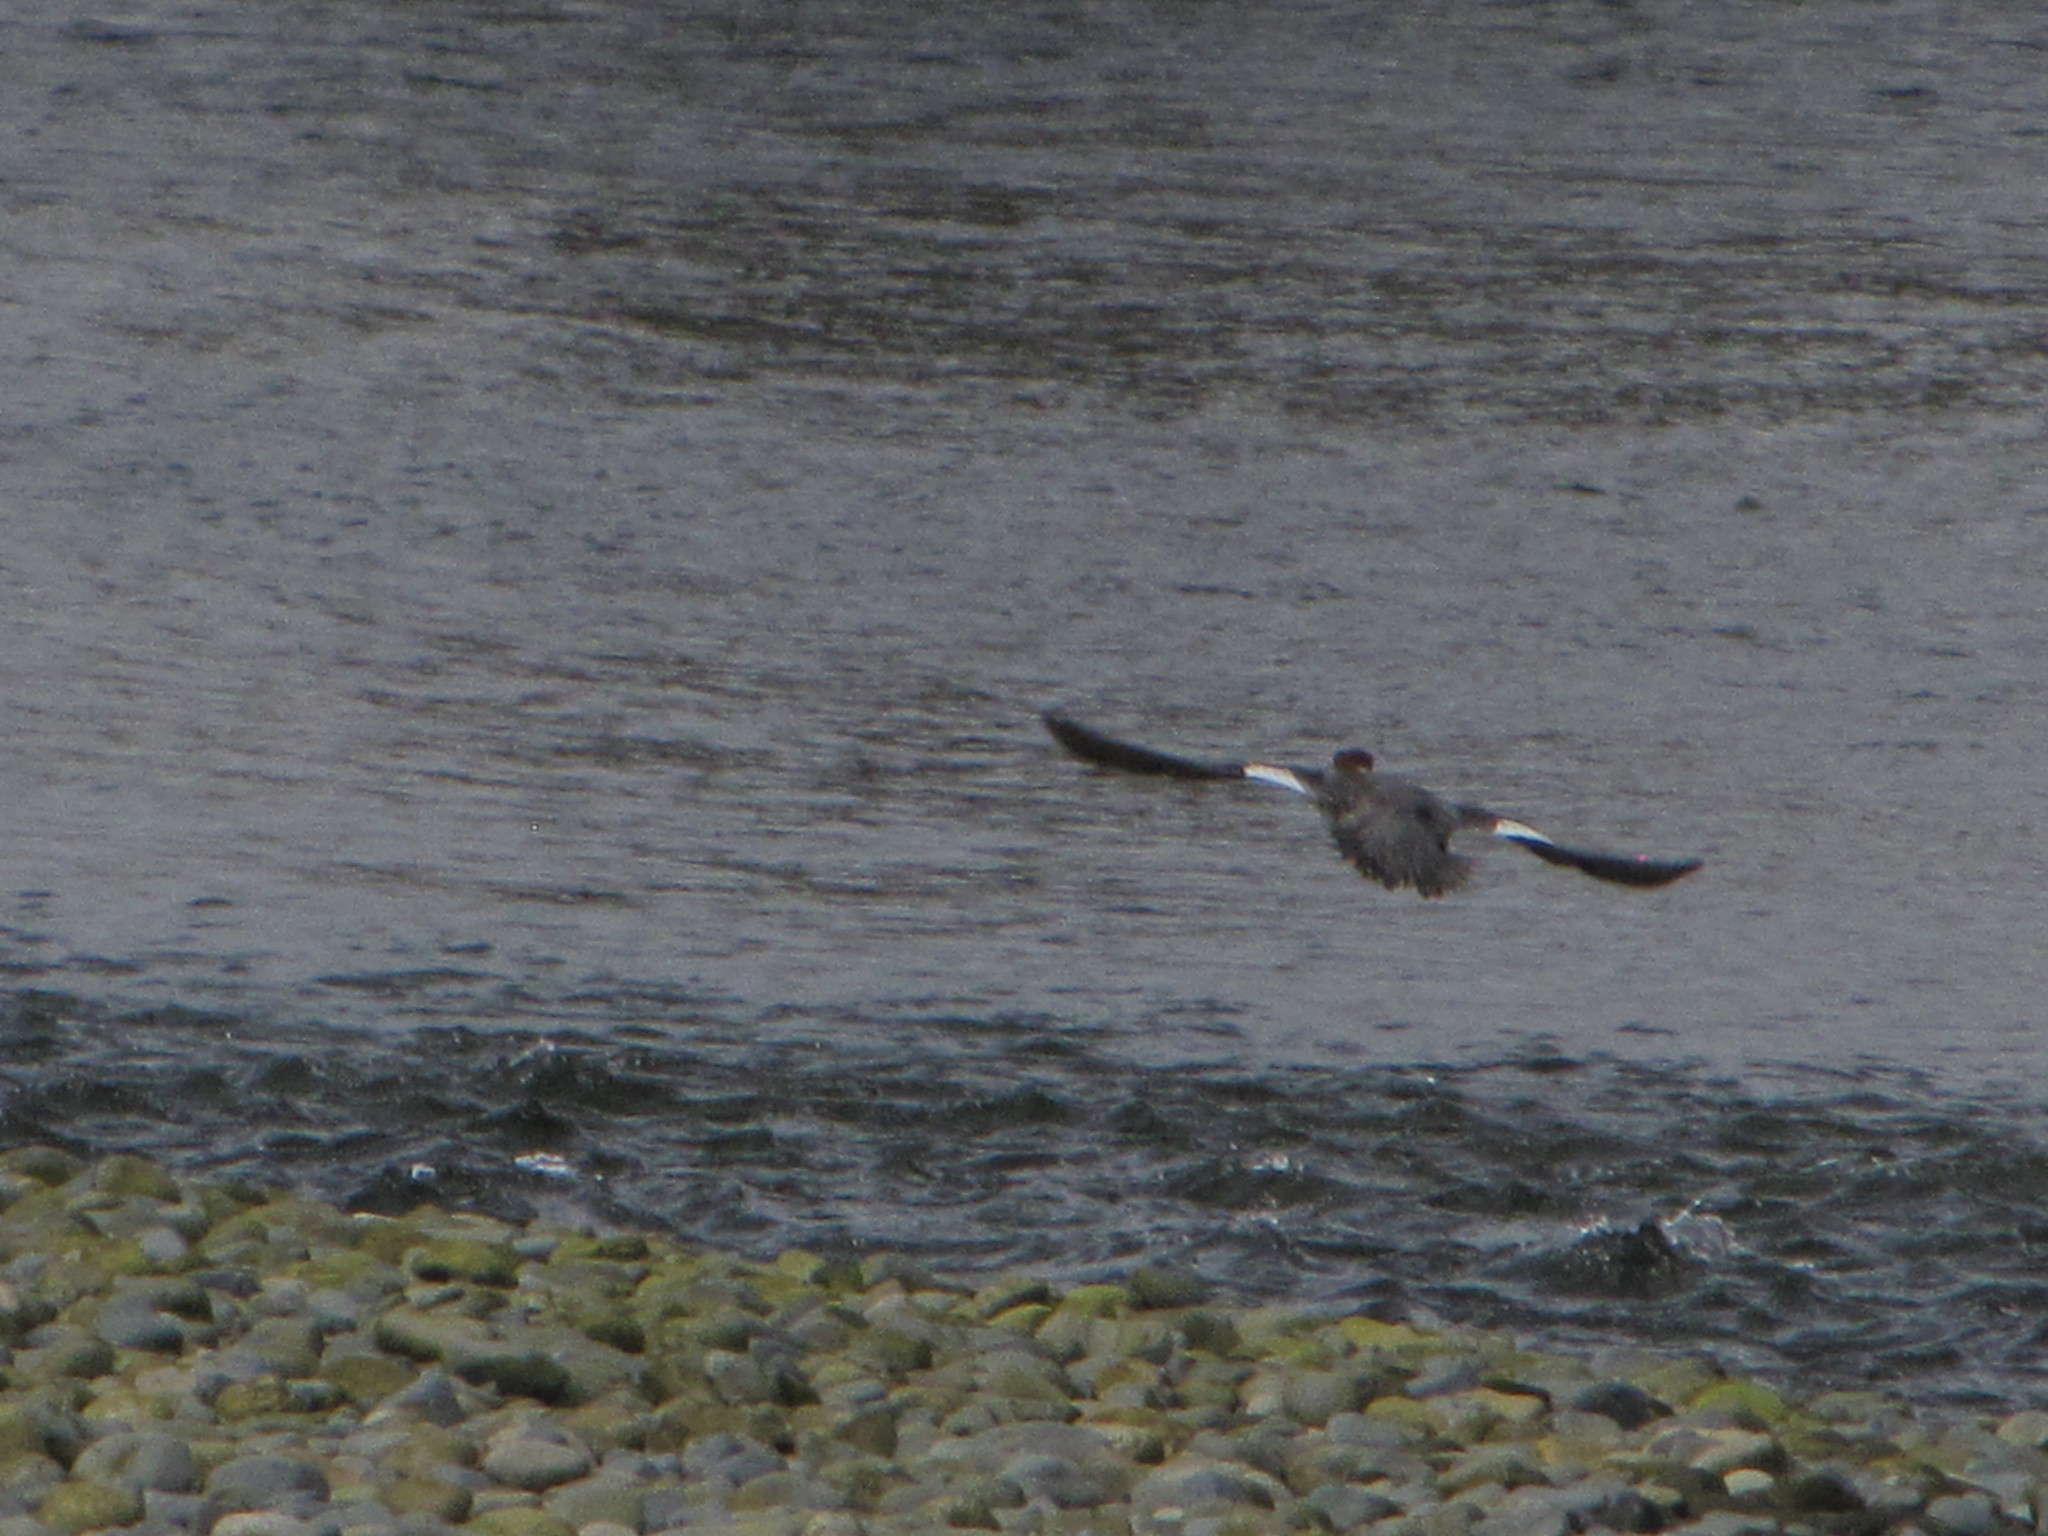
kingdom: Animalia
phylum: Chordata
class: Aves
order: Anseriformes
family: Anatidae
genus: Mergus
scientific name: Mergus merganser
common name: Common merganser
